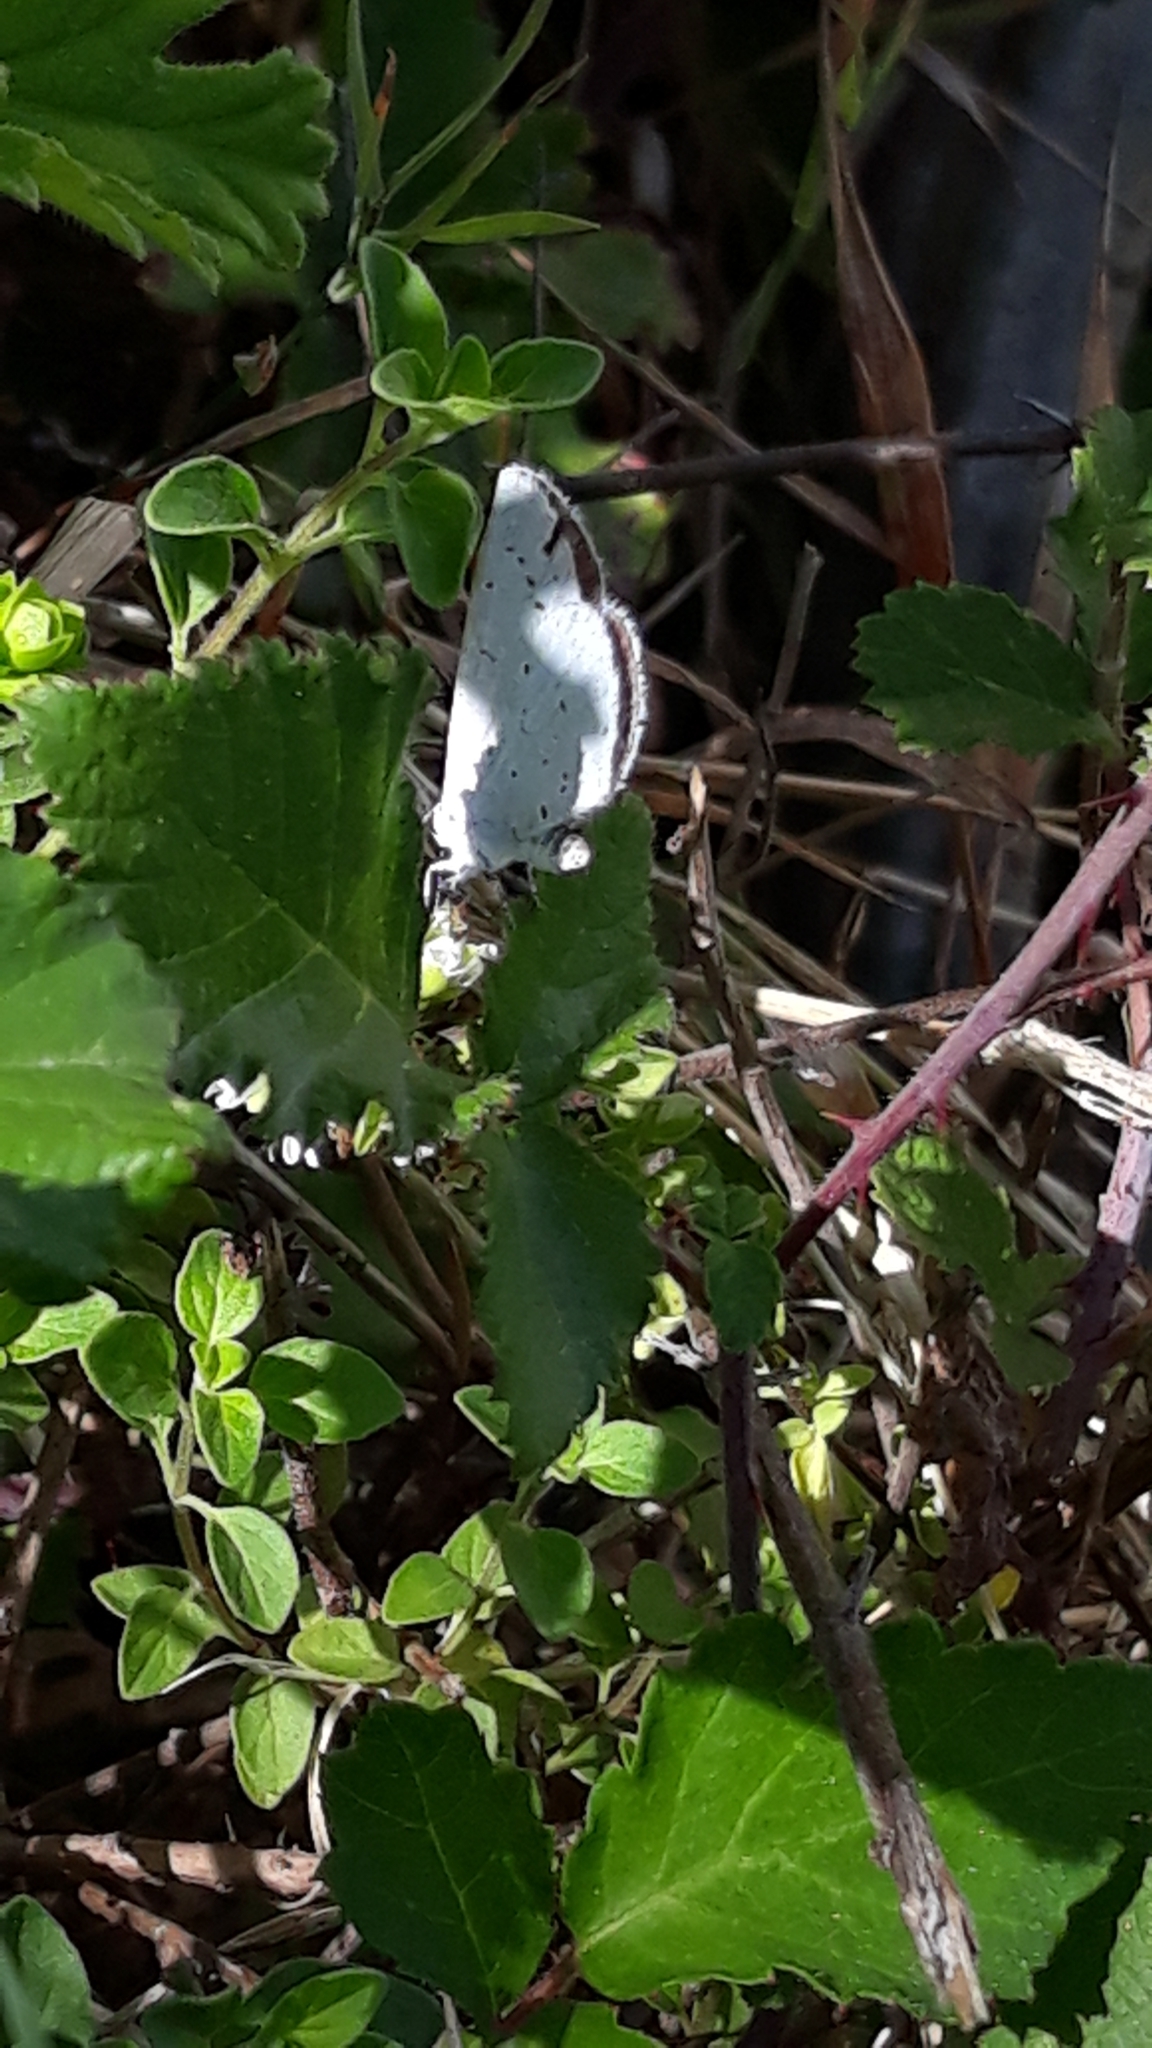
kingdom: Animalia
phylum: Arthropoda
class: Insecta
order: Lepidoptera
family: Lycaenidae
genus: Celastrina
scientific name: Celastrina argiolus
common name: Holly blue
